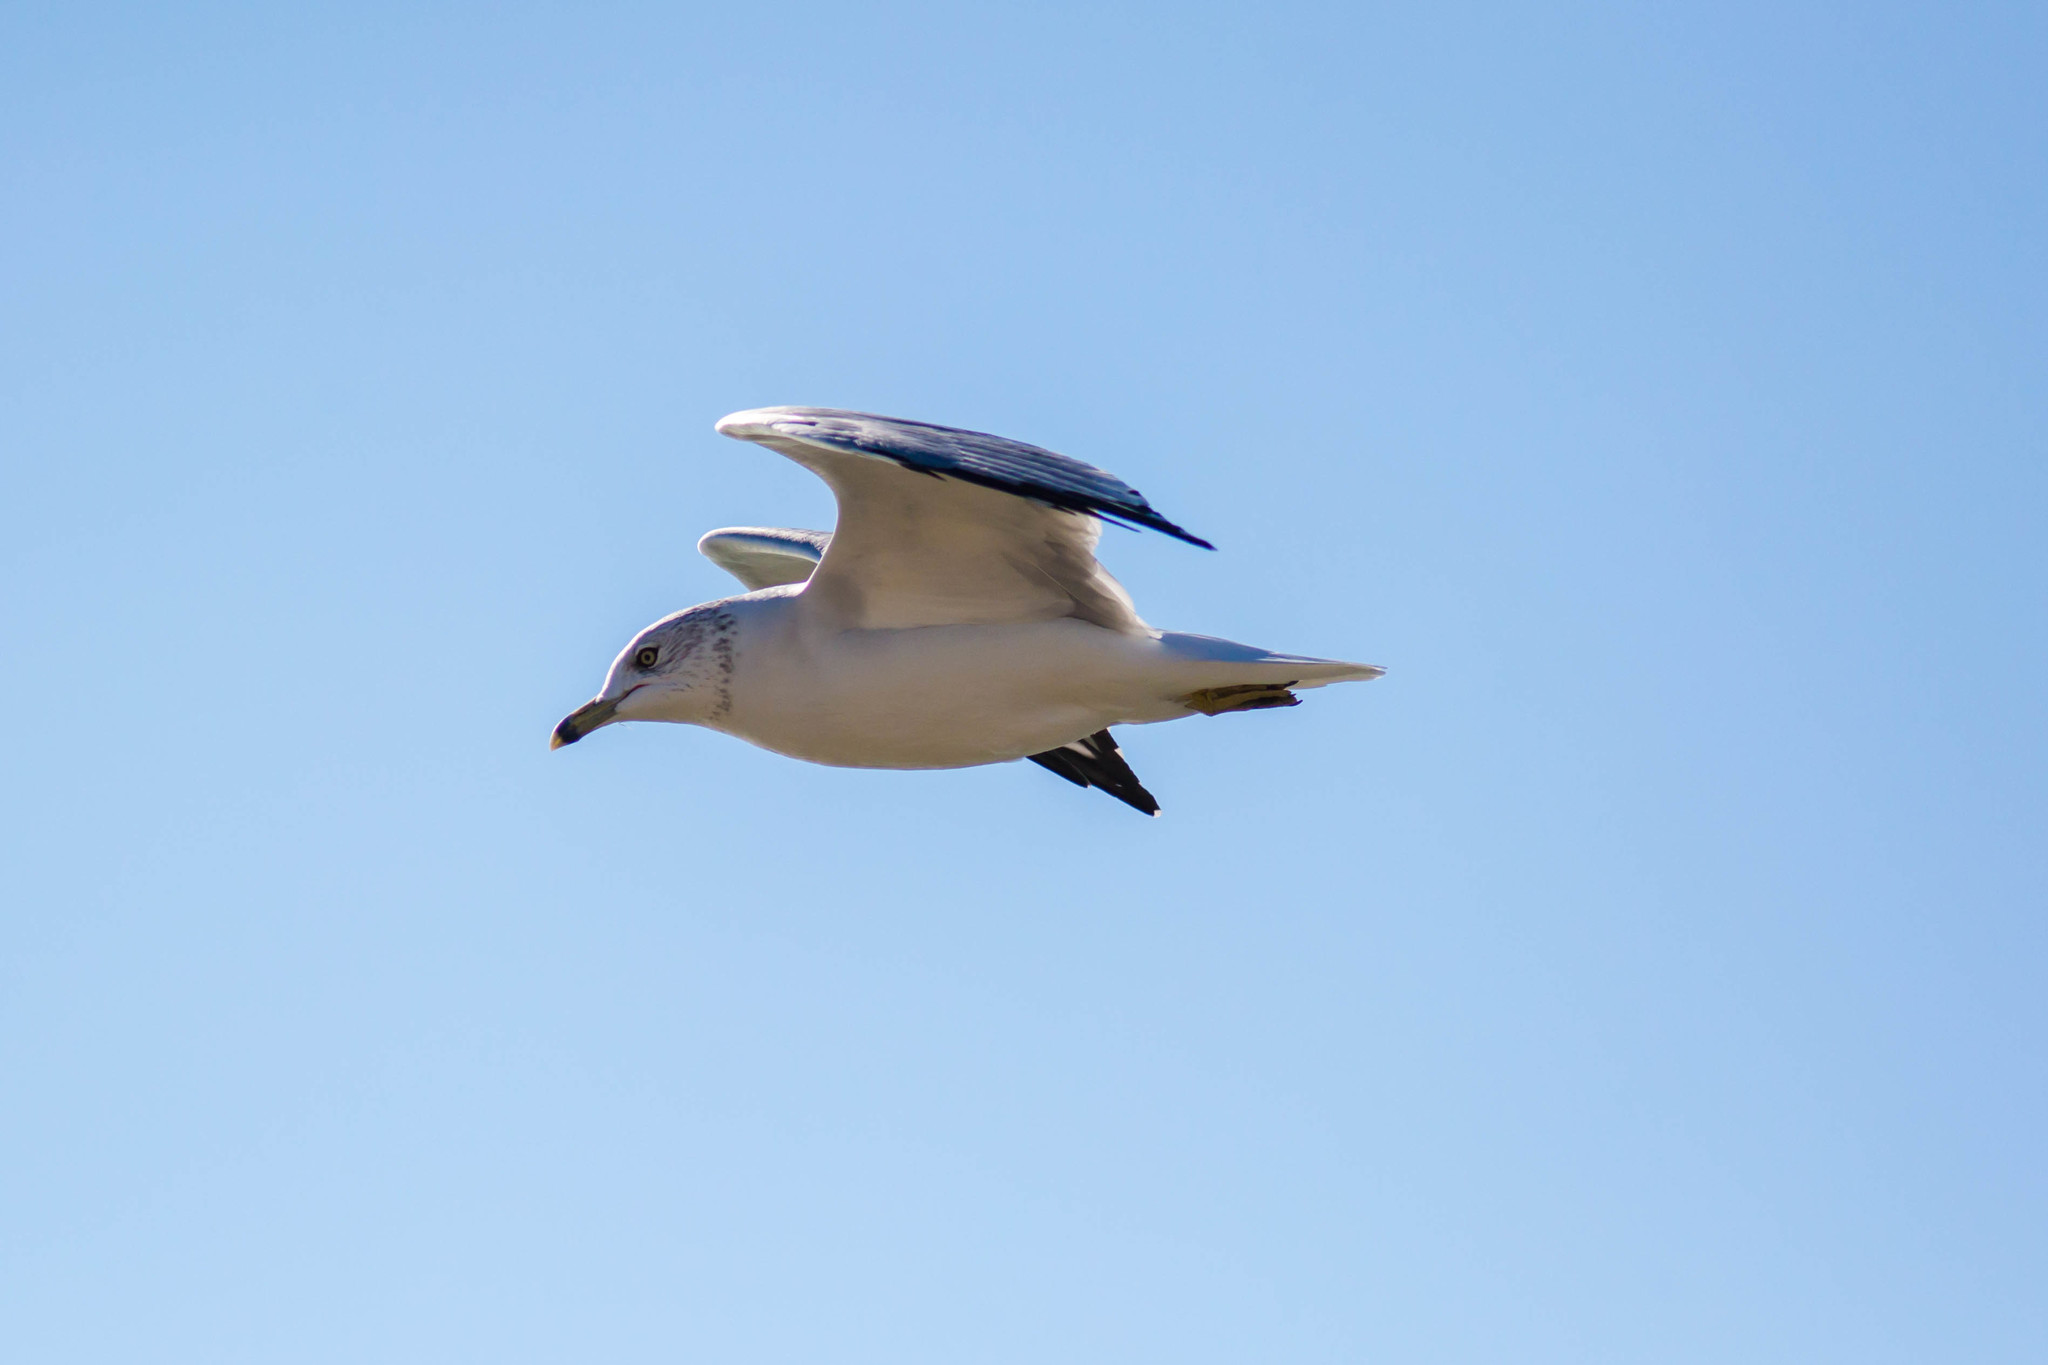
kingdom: Animalia
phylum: Chordata
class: Aves
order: Charadriiformes
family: Laridae
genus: Larus
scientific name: Larus delawarensis
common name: Ring-billed gull
